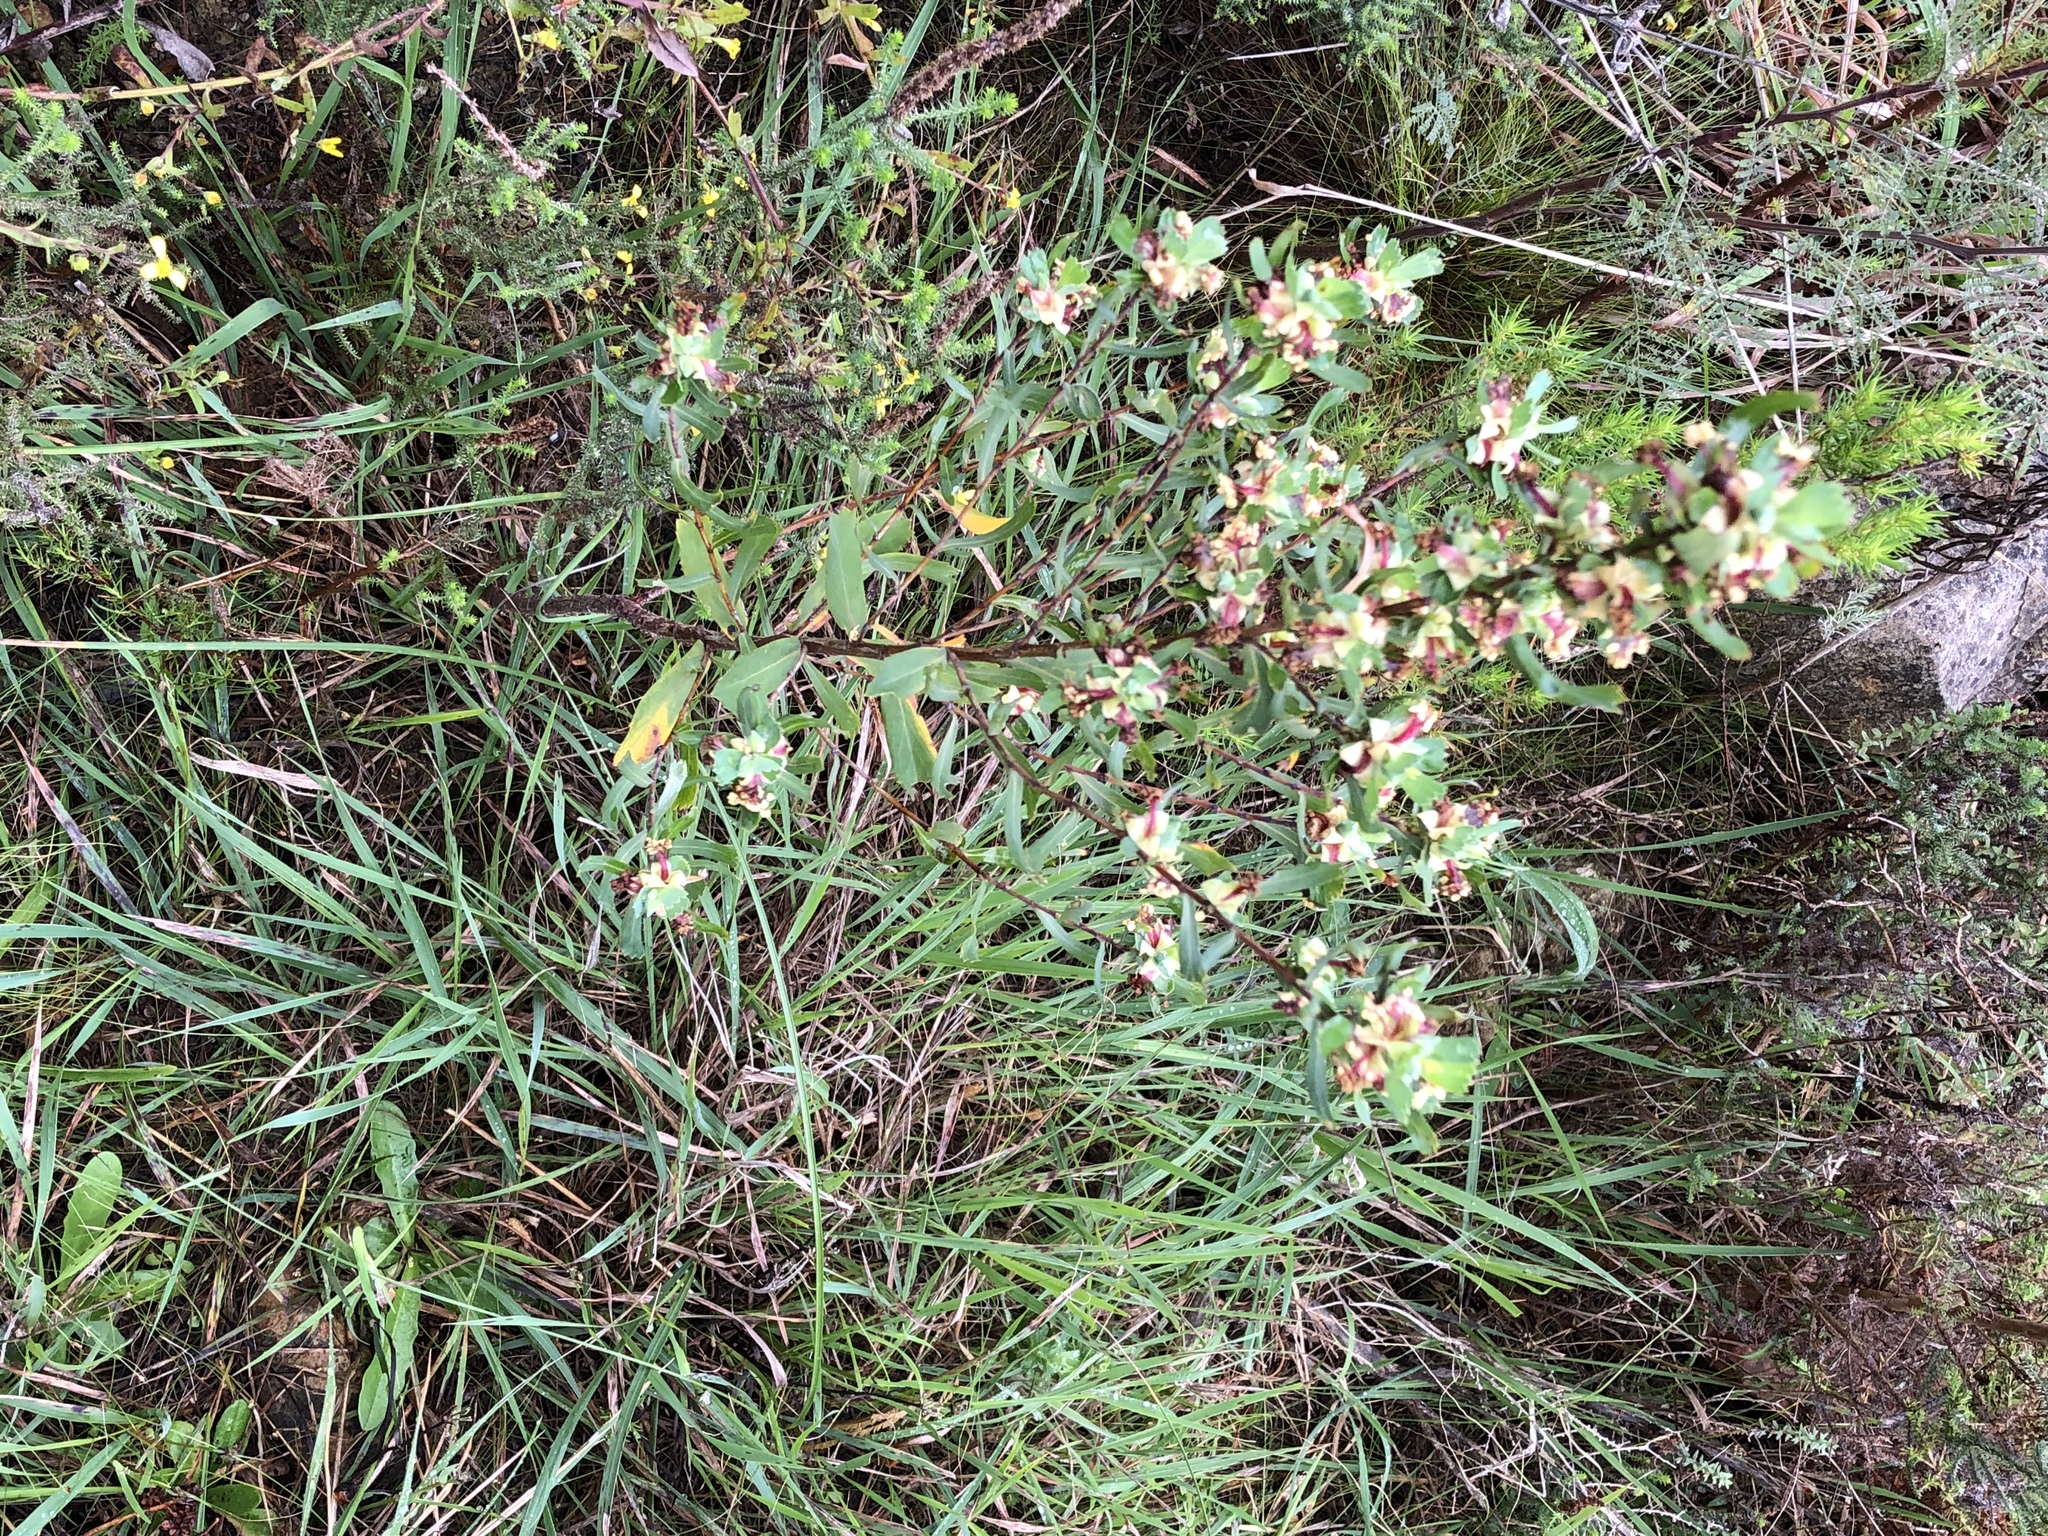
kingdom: Plantae
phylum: Tracheophyta
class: Magnoliopsida
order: Rosales
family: Rosaceae
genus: Cliffortia
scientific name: Cliffortia cuneata
